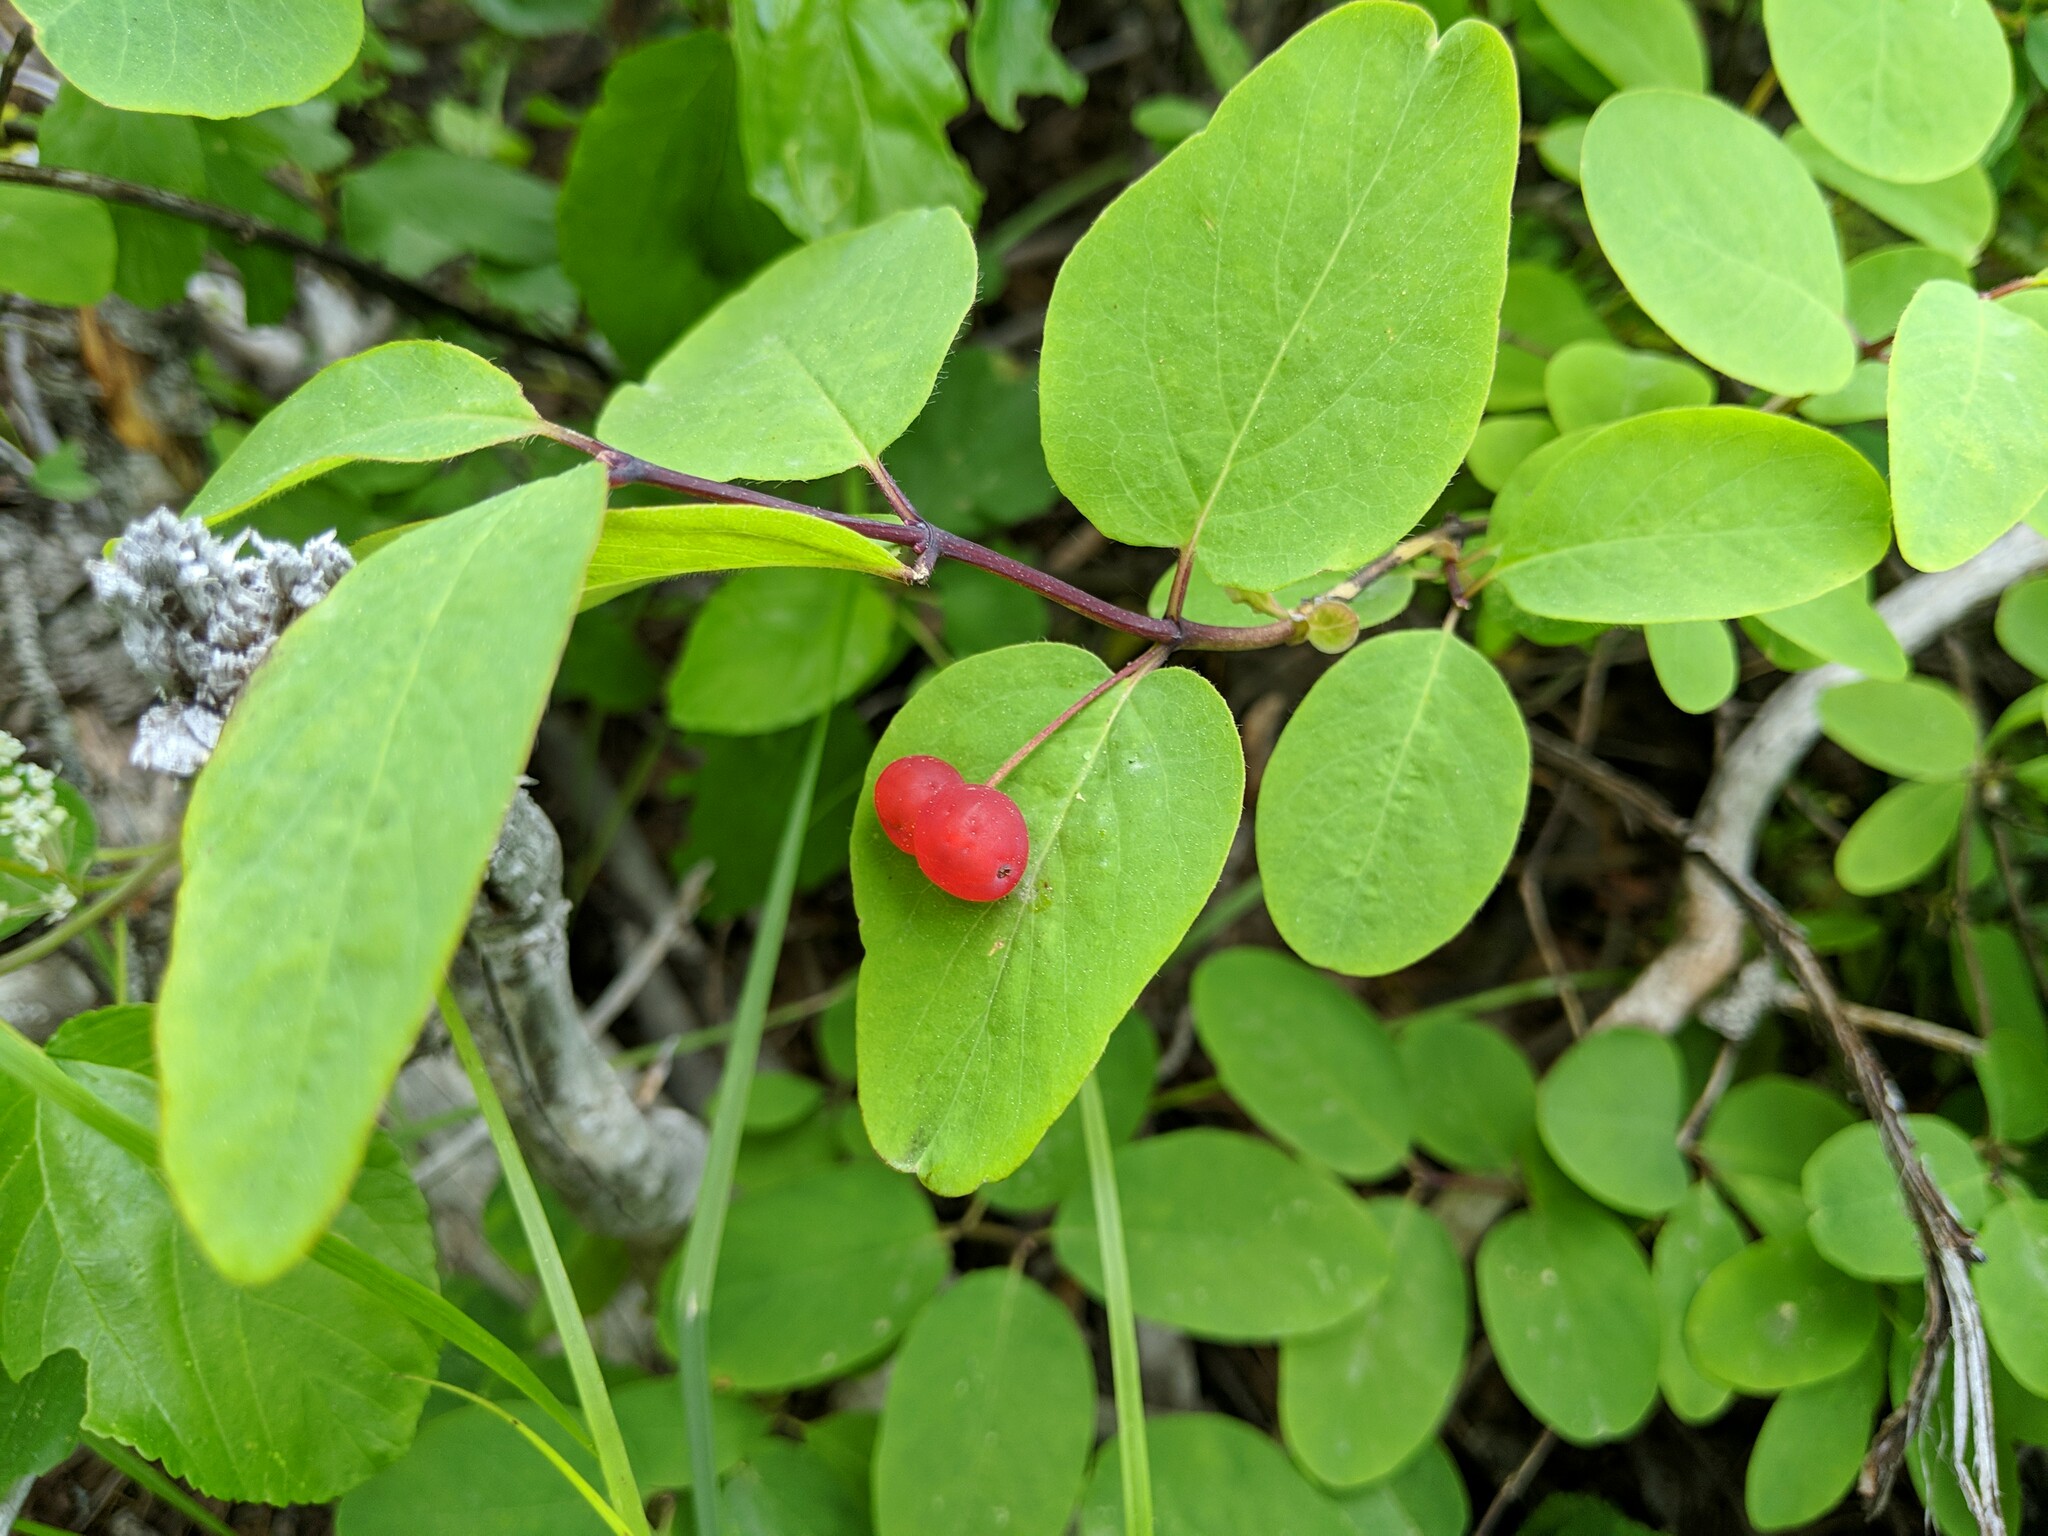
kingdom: Plantae
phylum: Tracheophyta
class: Magnoliopsida
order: Dipsacales
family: Caprifoliaceae
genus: Lonicera
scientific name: Lonicera utahensis
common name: Utah honeysuckle
